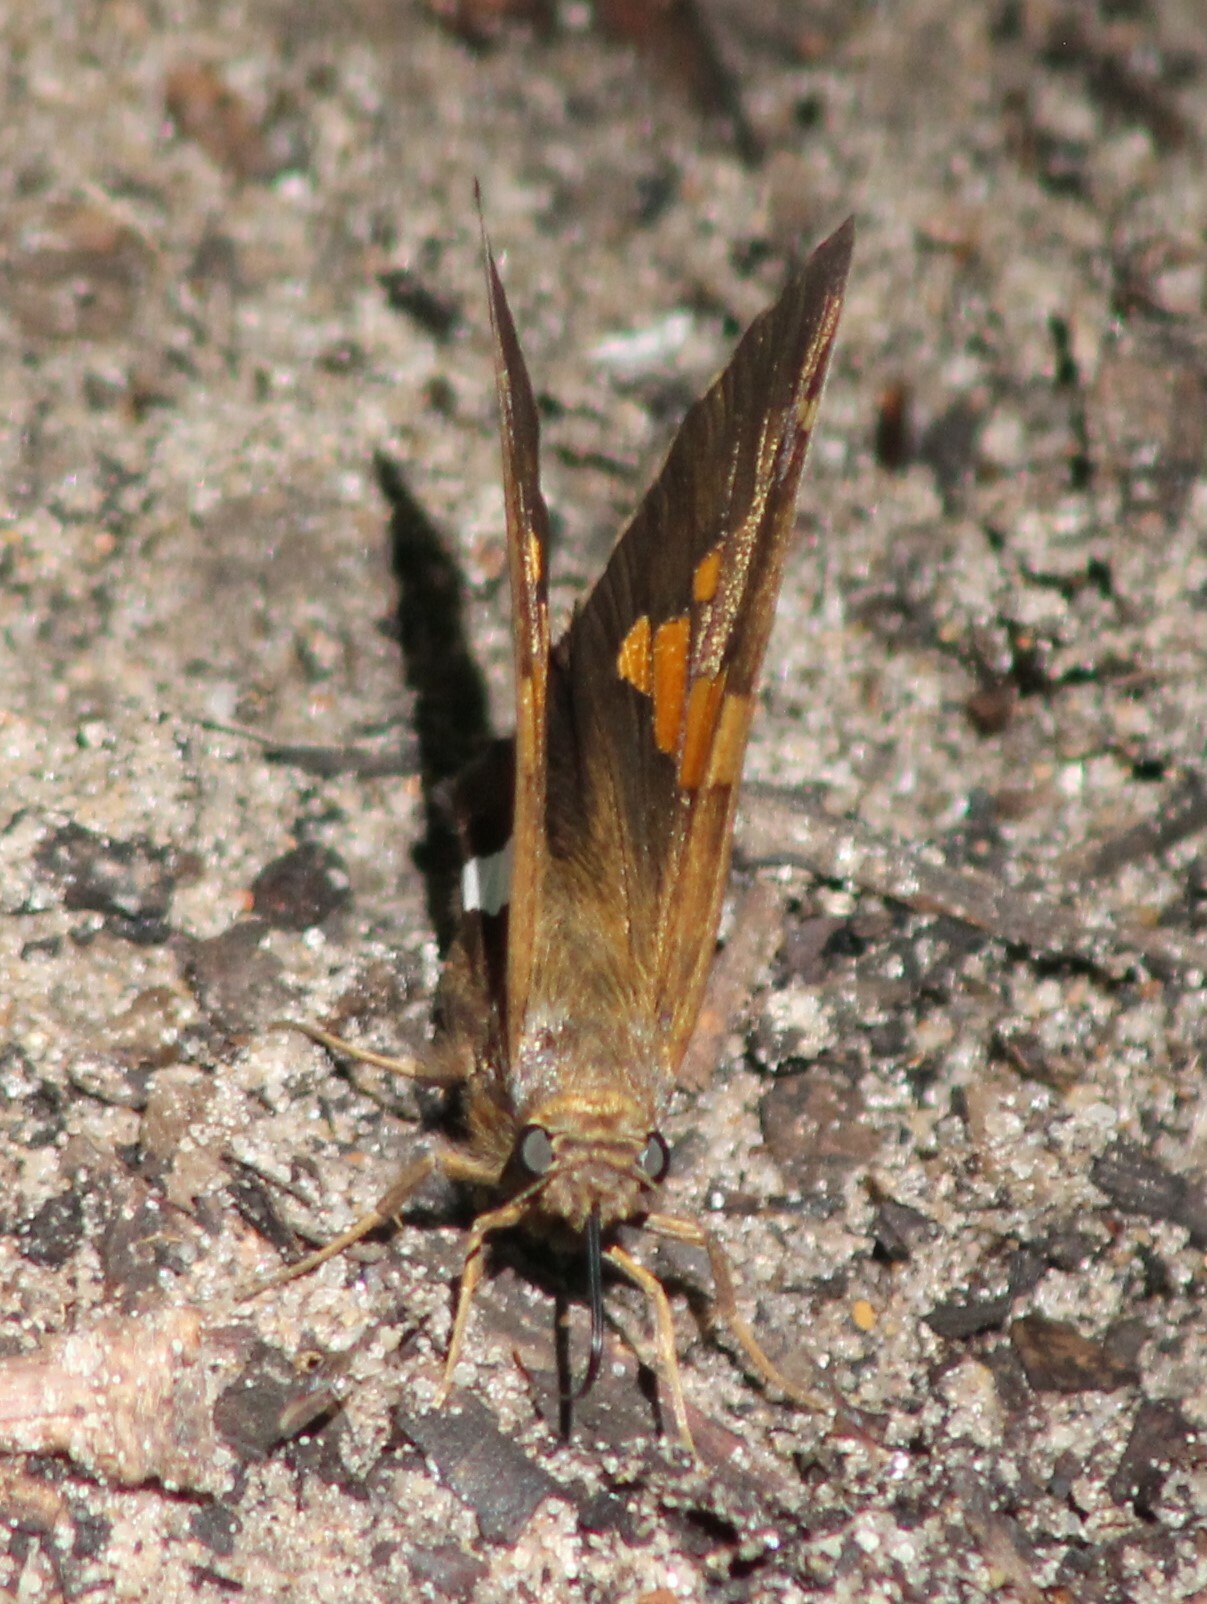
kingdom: Animalia
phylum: Arthropoda
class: Insecta
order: Lepidoptera
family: Hesperiidae
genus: Epargyreus
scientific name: Epargyreus clarus
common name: Silver-spotted skipper
